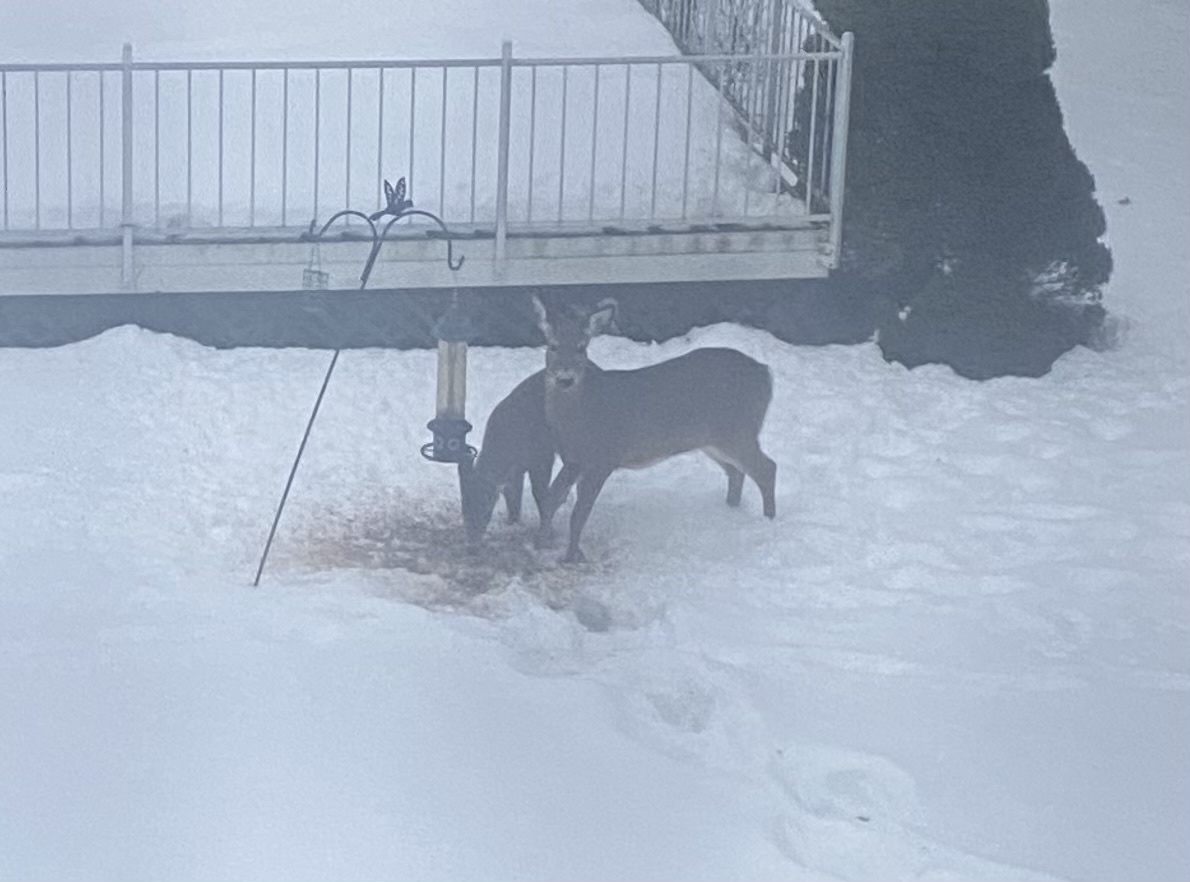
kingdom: Animalia
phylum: Chordata
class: Mammalia
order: Artiodactyla
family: Cervidae
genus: Odocoileus
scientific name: Odocoileus virginianus
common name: White-tailed deer
